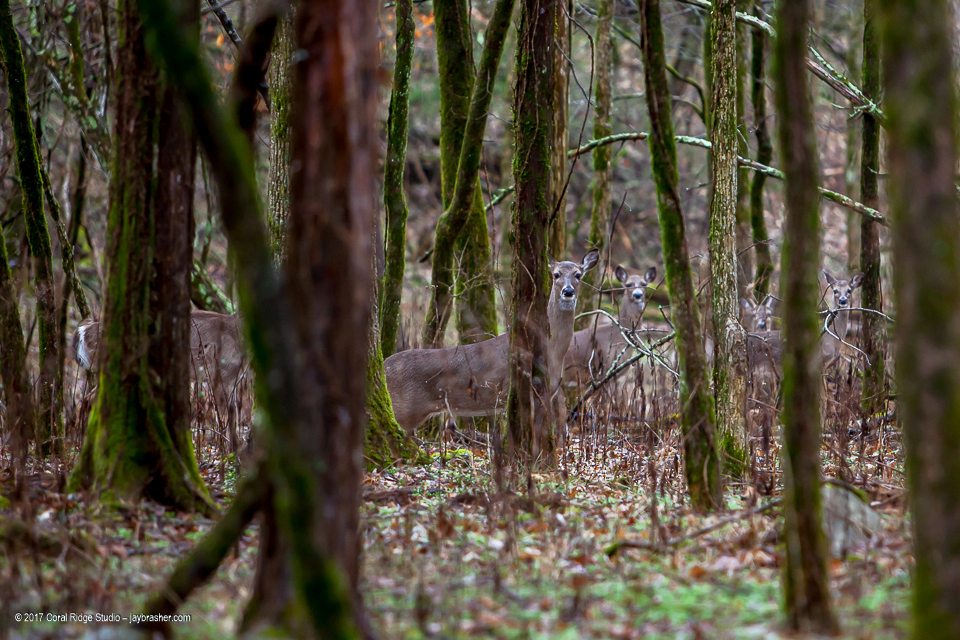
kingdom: Animalia
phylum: Chordata
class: Mammalia
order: Artiodactyla
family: Cervidae
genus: Odocoileus
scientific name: Odocoileus virginianus
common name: White-tailed deer
